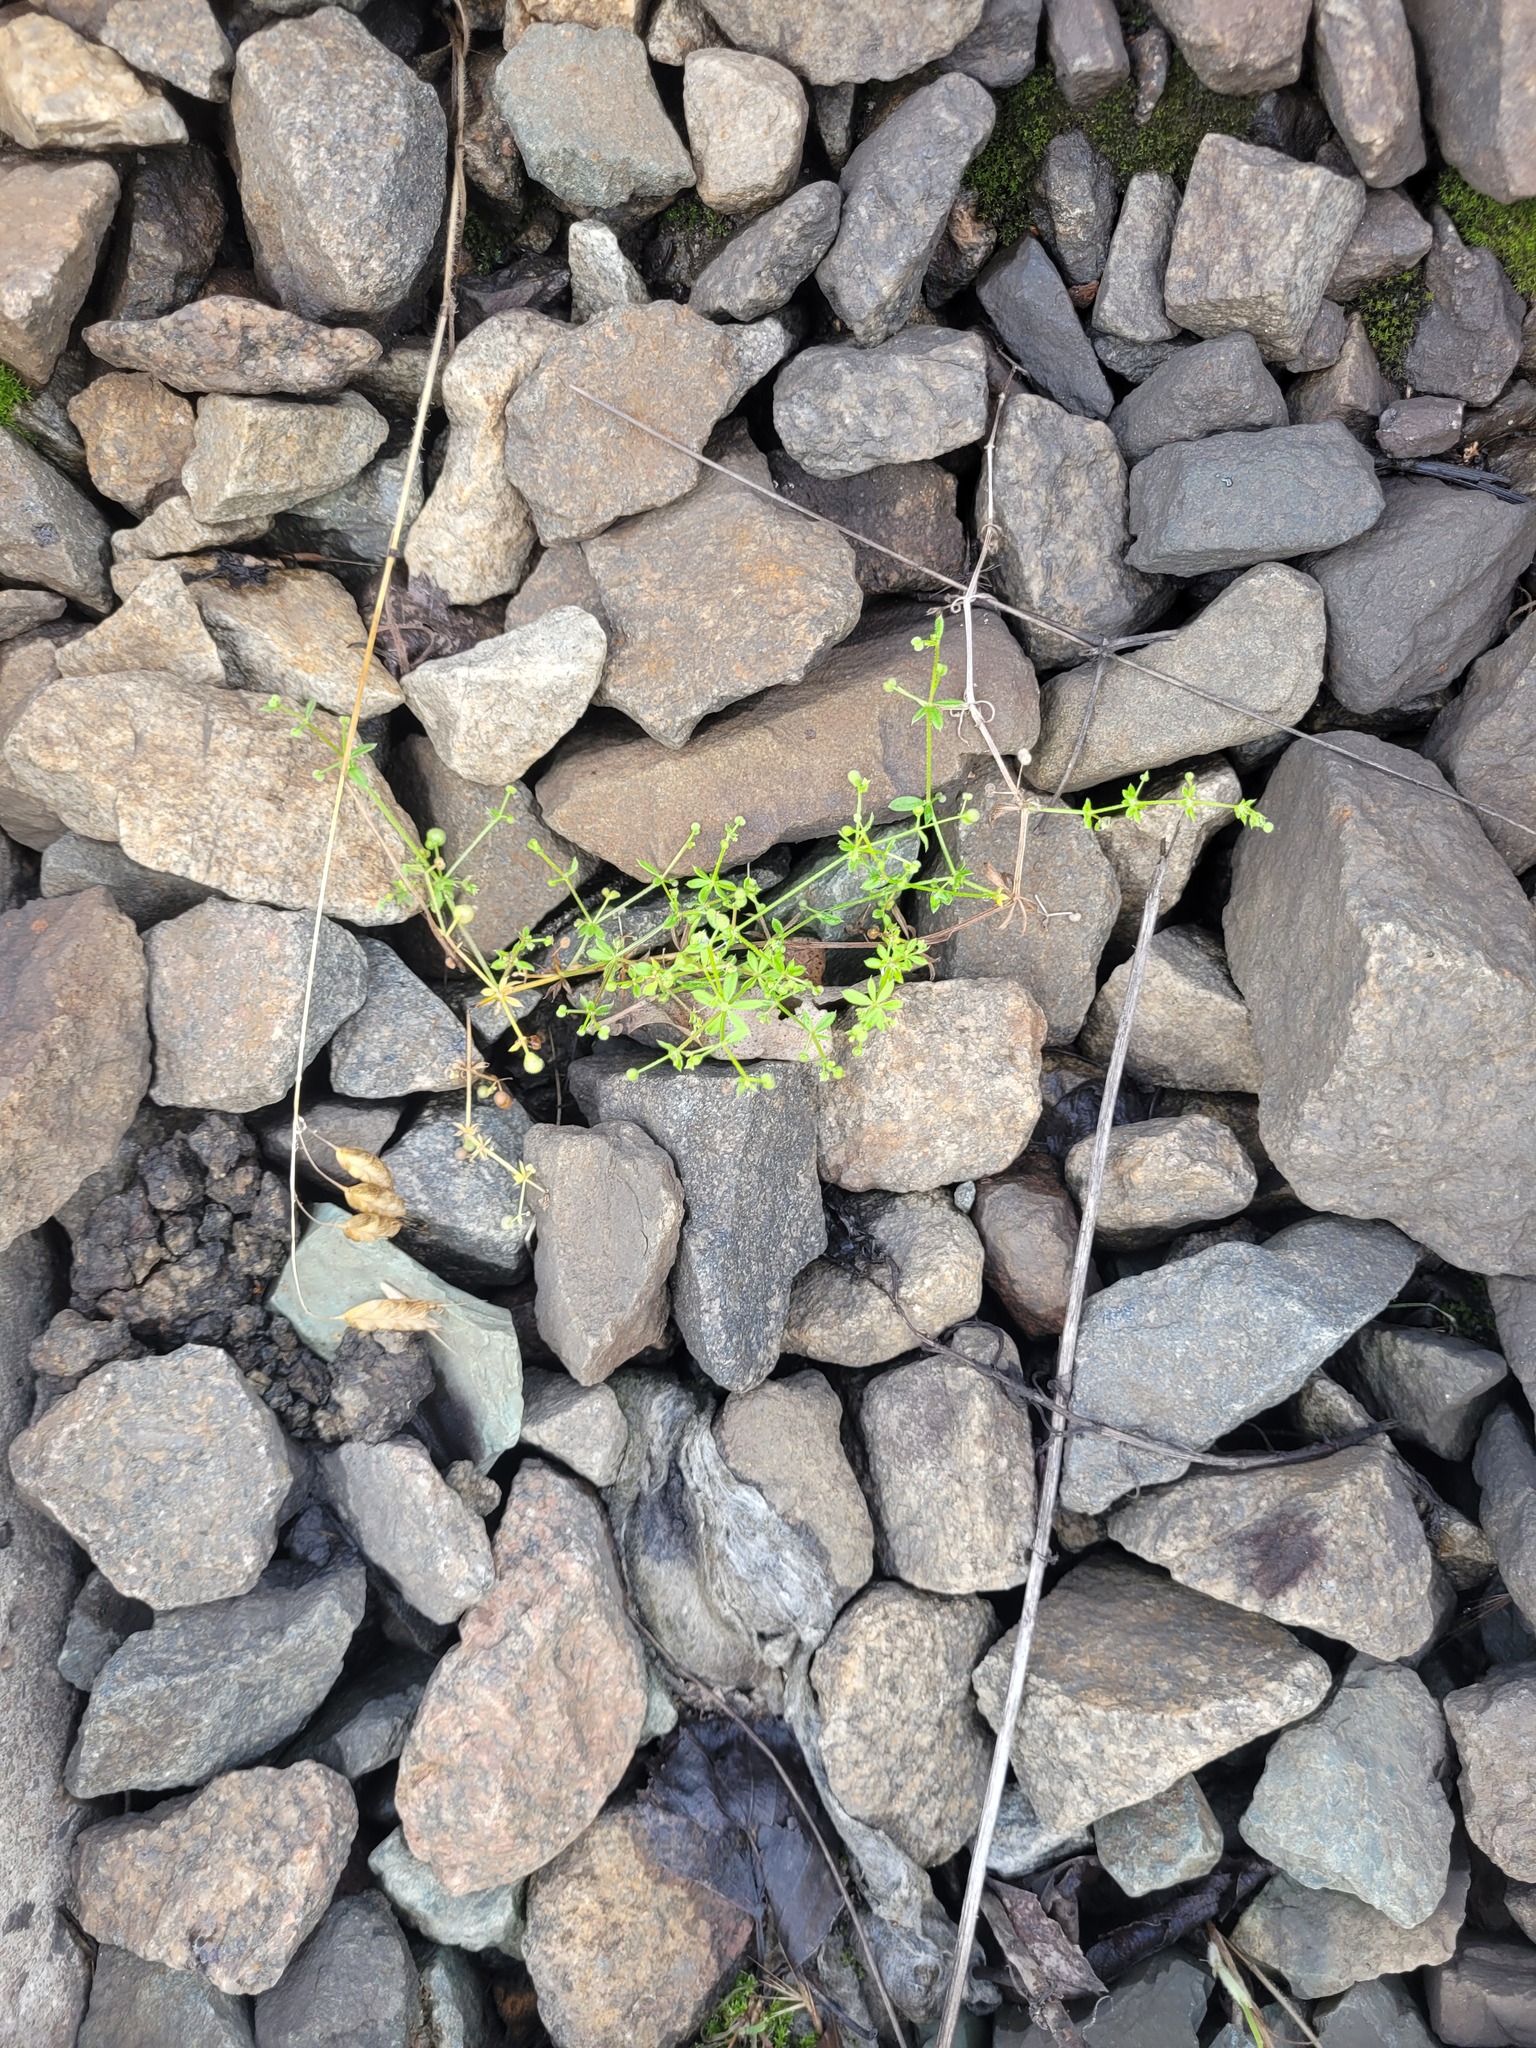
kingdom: Plantae
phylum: Tracheophyta
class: Magnoliopsida
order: Gentianales
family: Rubiaceae
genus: Galium
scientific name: Galium aparine
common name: Cleavers
